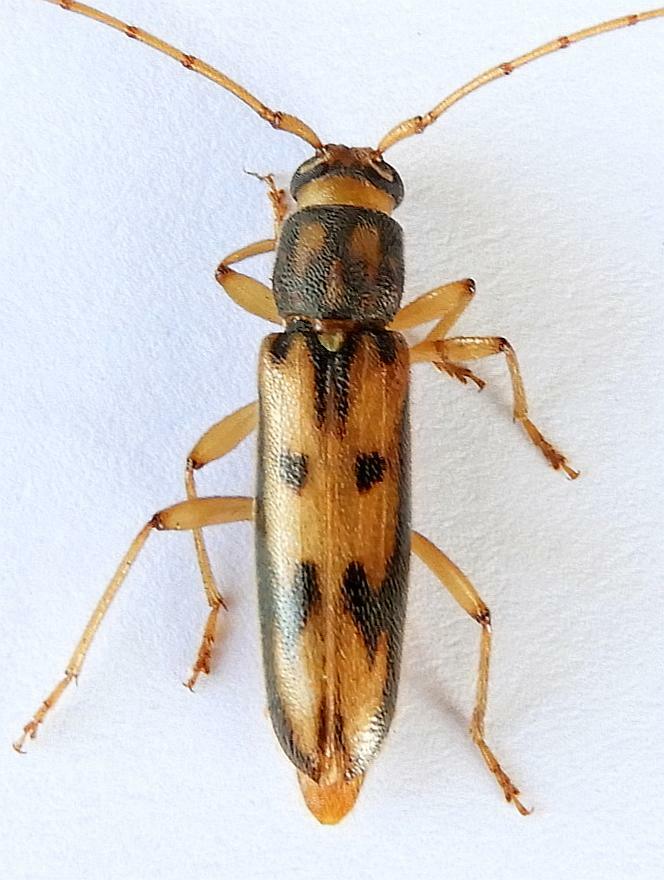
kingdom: Animalia
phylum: Arthropoda
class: Insecta
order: Coleoptera
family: Cerambycidae
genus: Achryson
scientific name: Achryson surinamum
